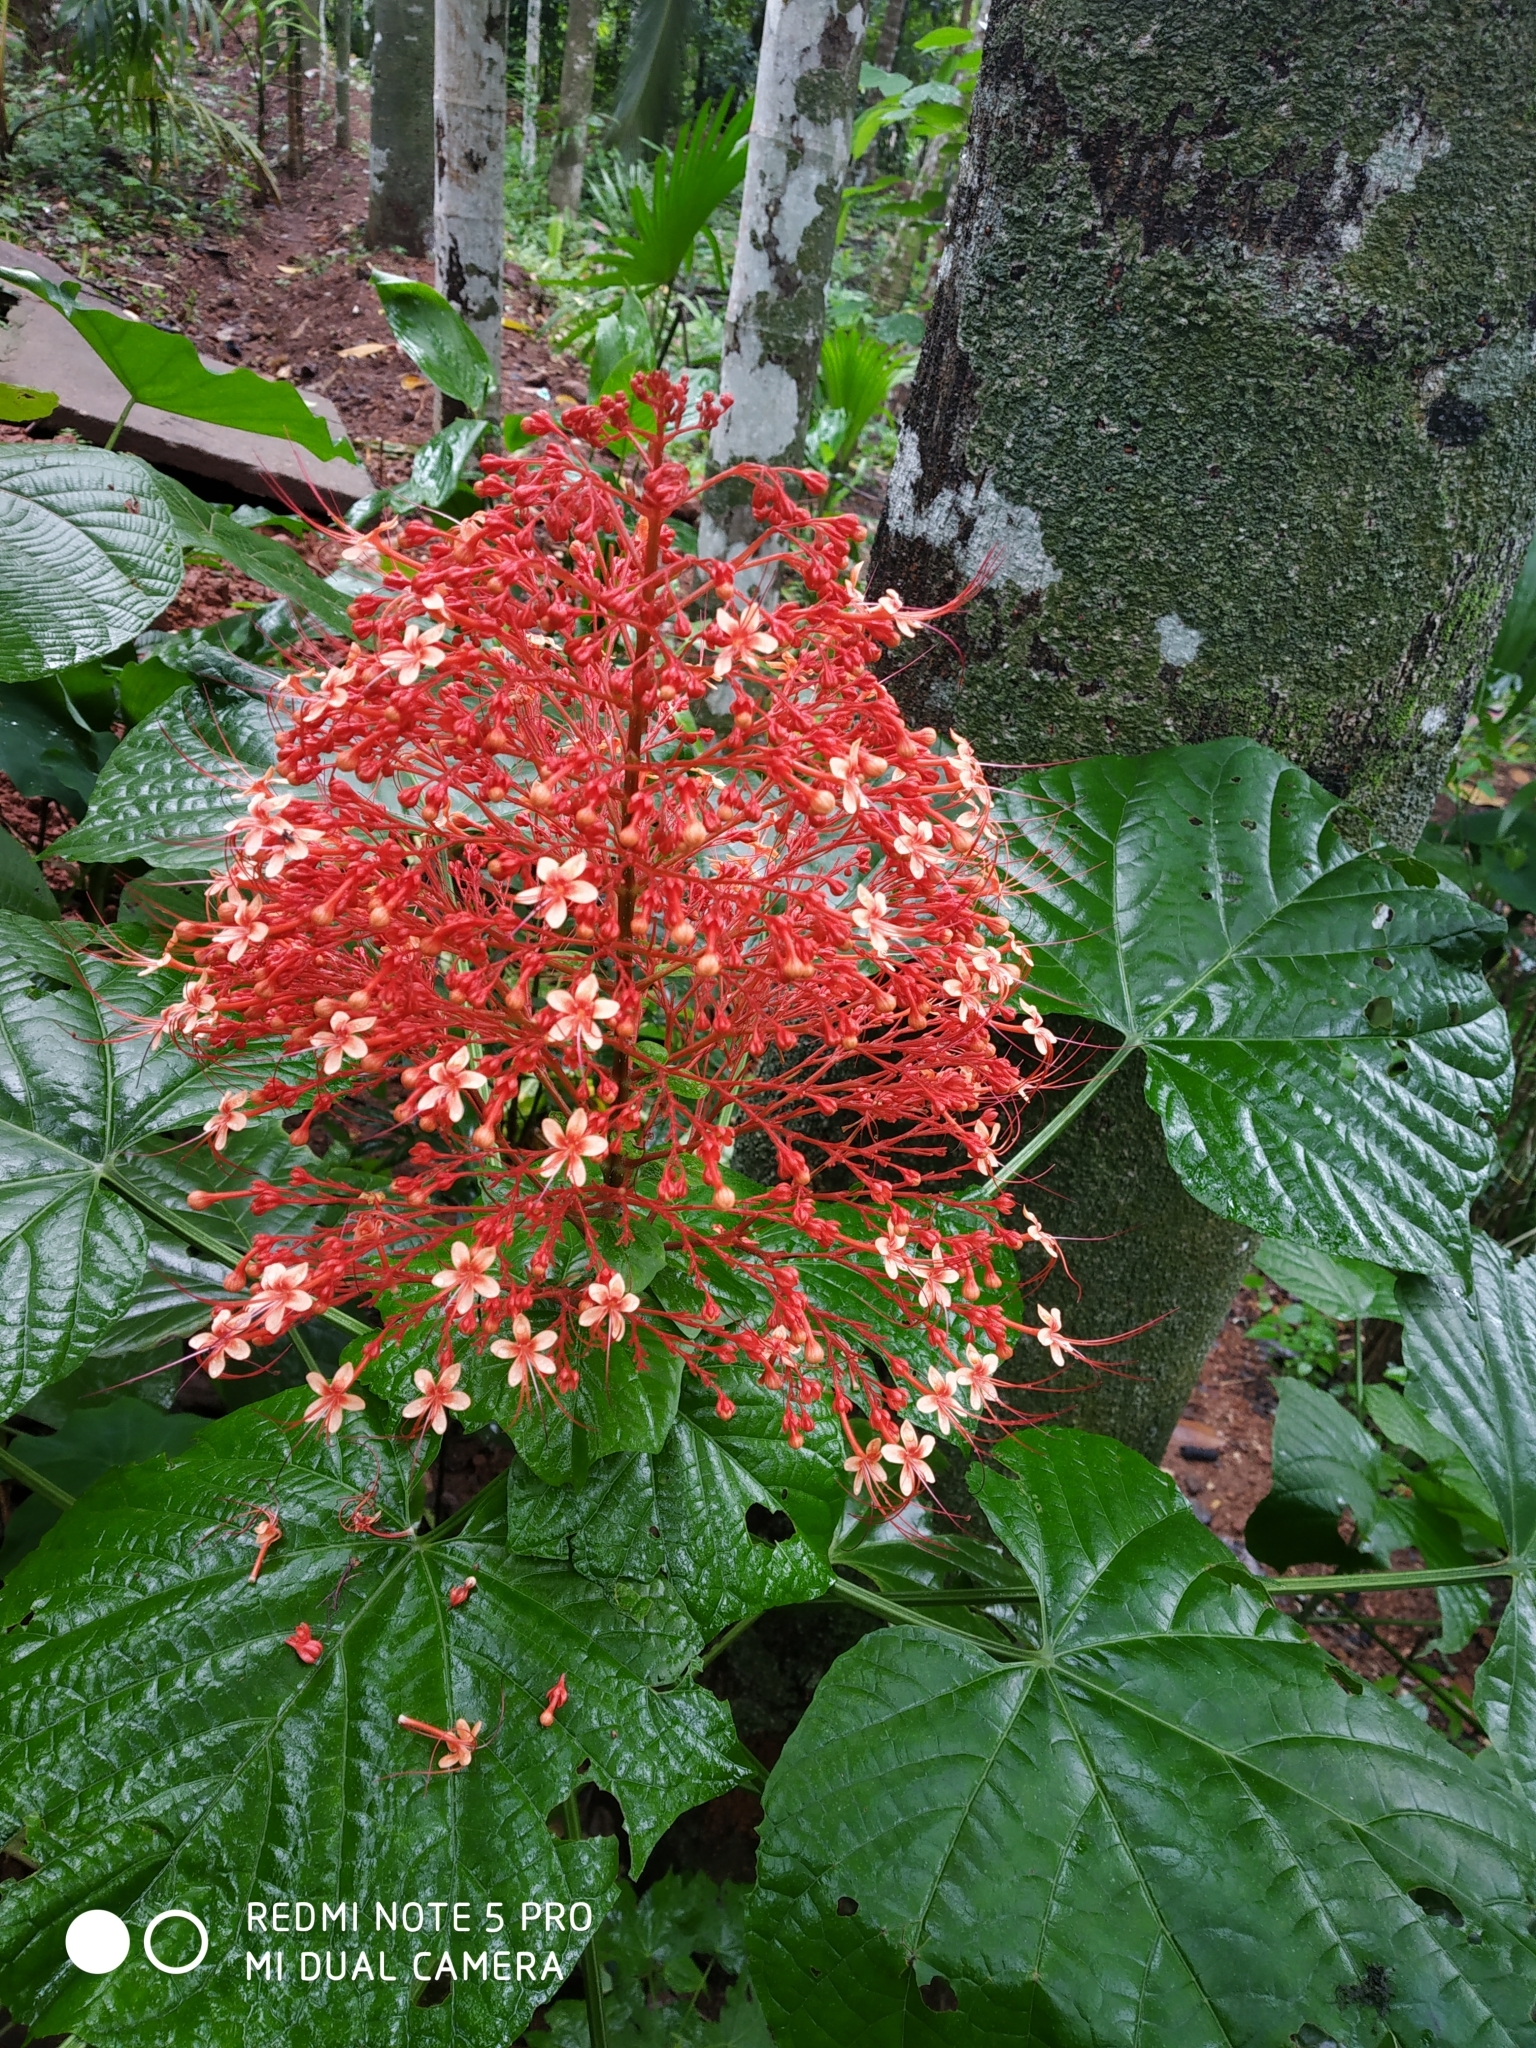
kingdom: Plantae
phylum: Tracheophyta
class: Magnoliopsida
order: Lamiales
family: Lamiaceae
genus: Clerodendrum
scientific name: Clerodendrum paniculatum
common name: Pagoda-flower
